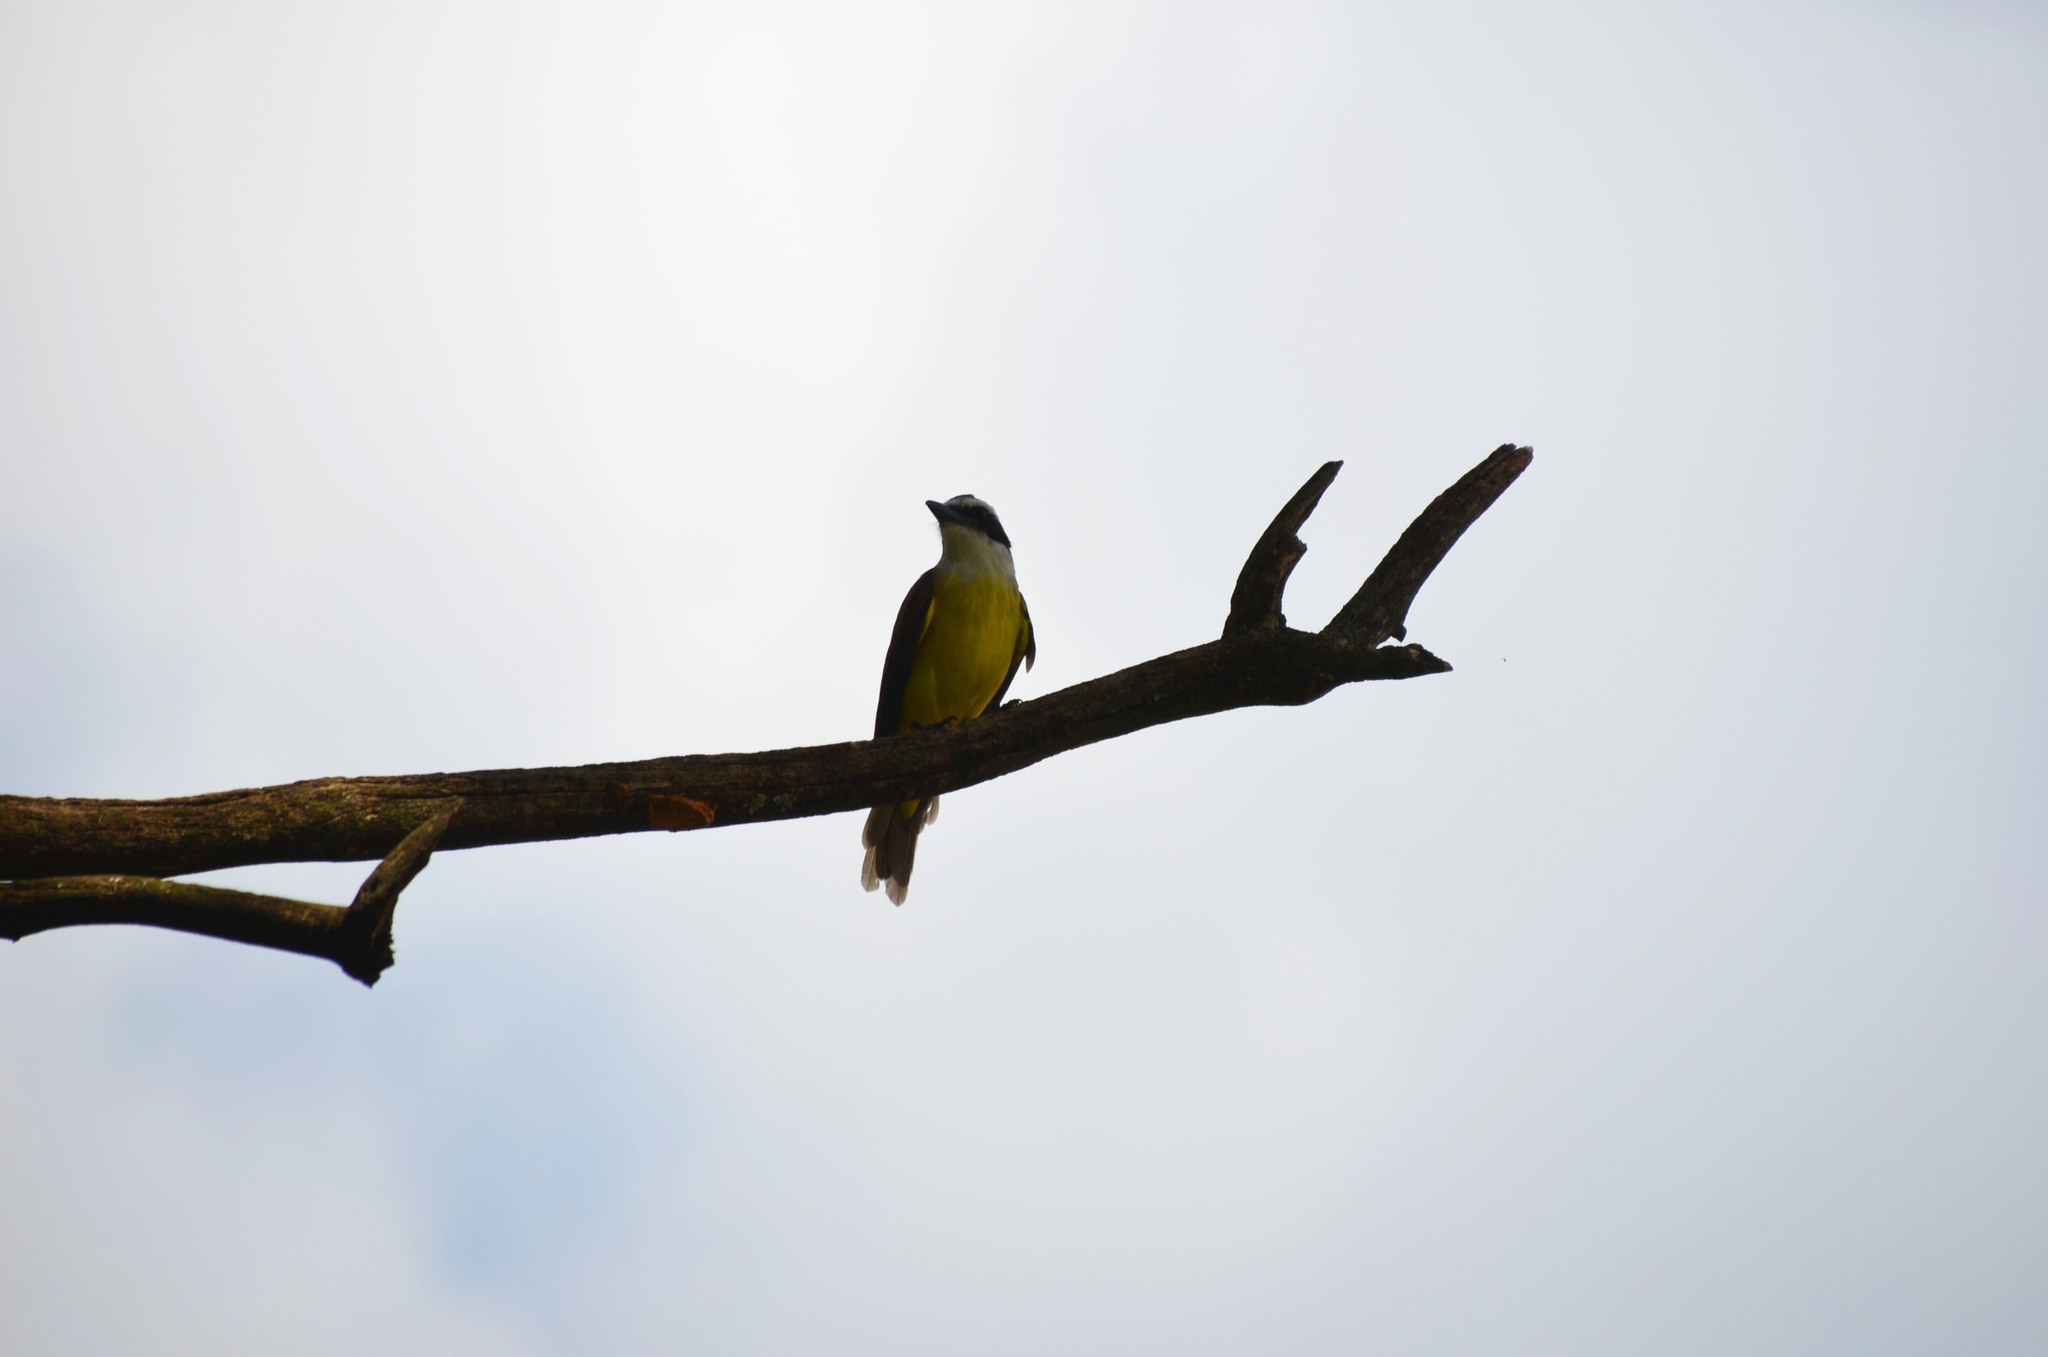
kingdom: Animalia
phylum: Chordata
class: Aves
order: Passeriformes
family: Tyrannidae
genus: Pitangus
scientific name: Pitangus sulphuratus
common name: Great kiskadee
